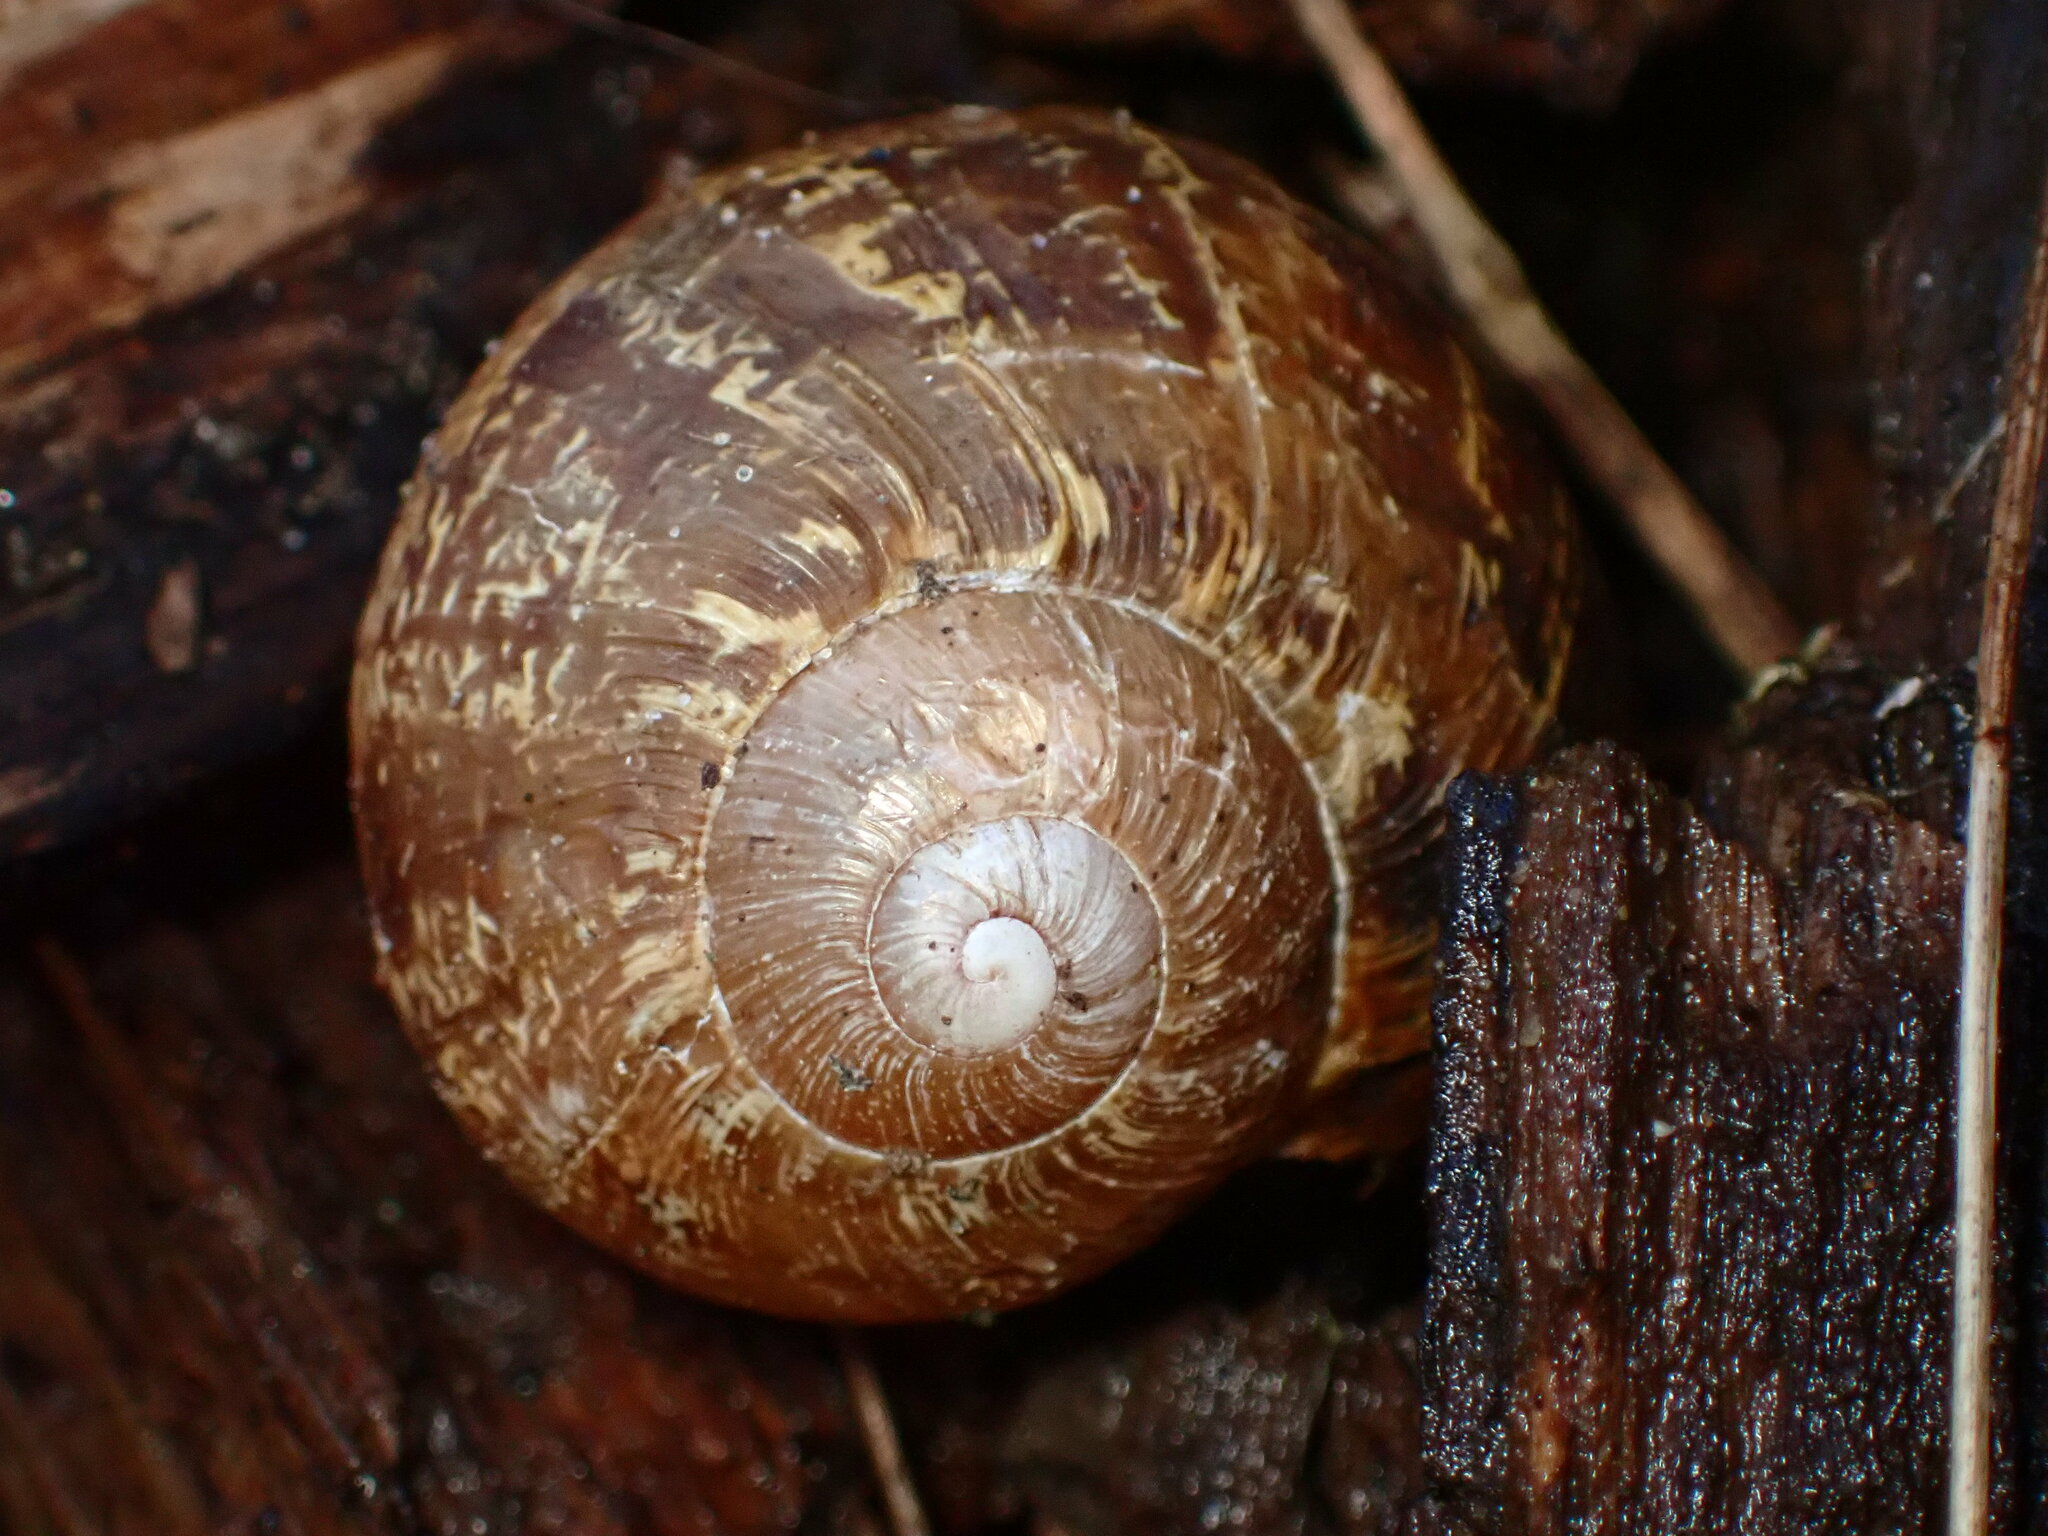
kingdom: Animalia
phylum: Mollusca
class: Gastropoda
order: Stylommatophora
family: Helicidae
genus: Cornu
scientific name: Cornu aspersum
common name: Brown garden snail
